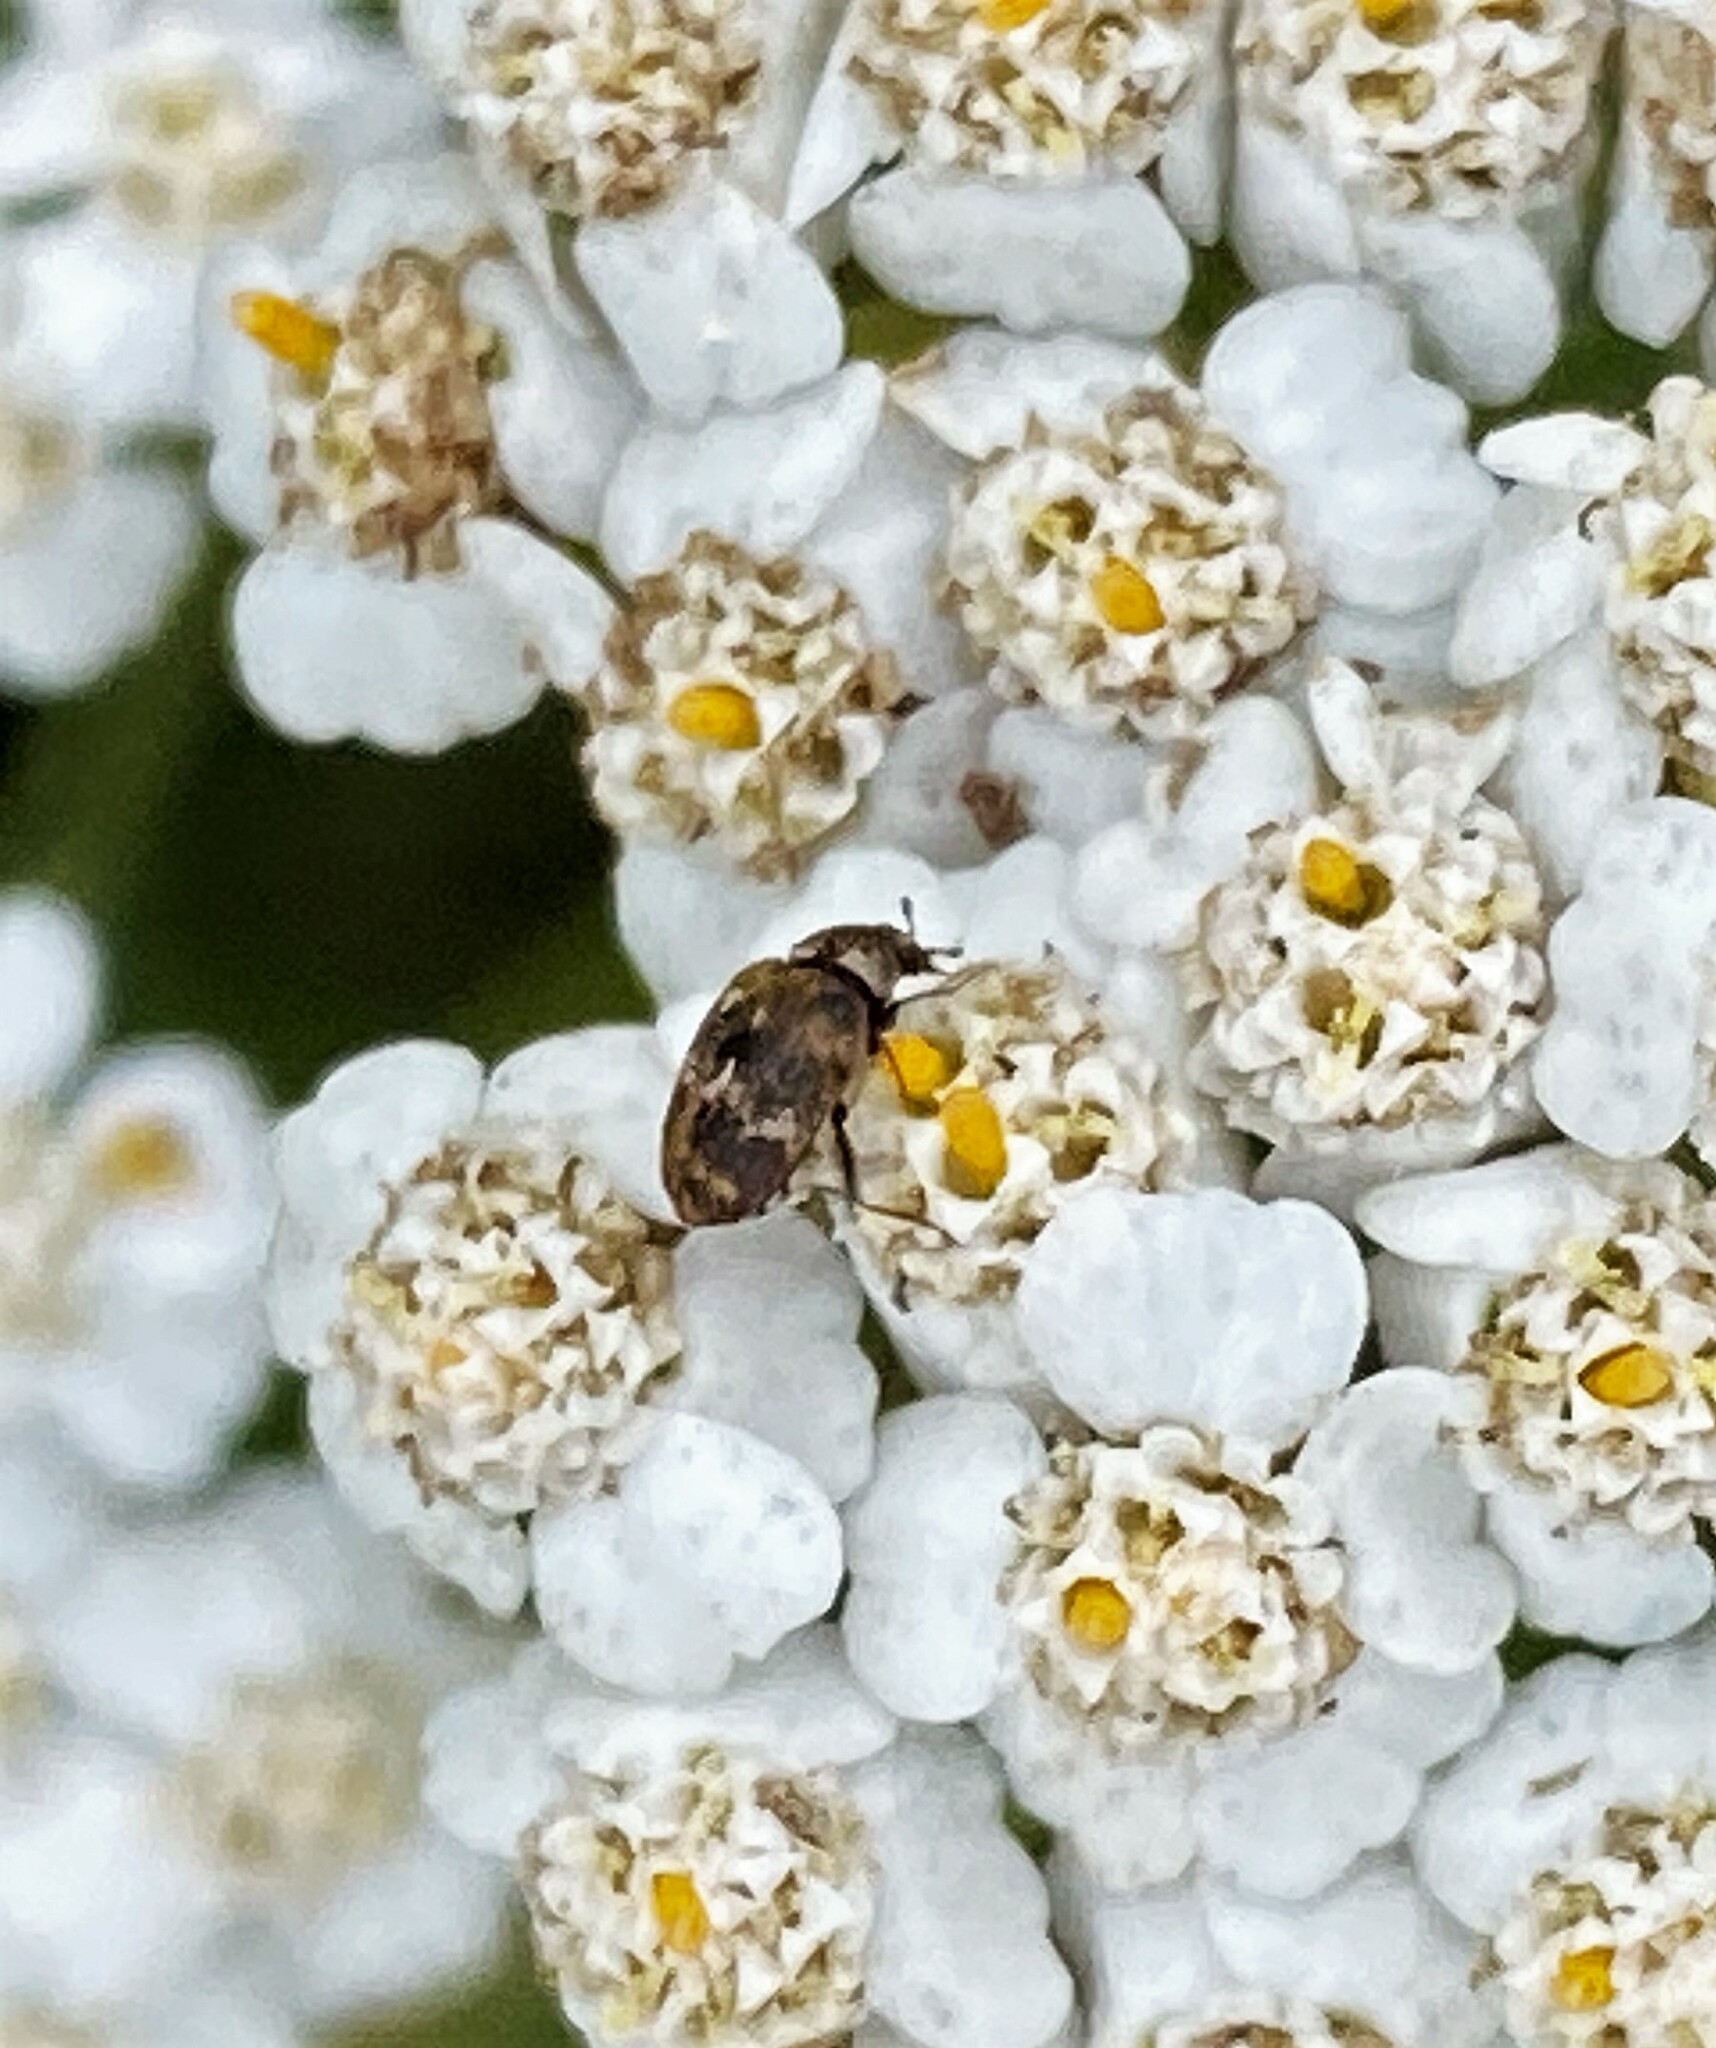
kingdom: Animalia
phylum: Arthropoda
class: Insecta
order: Coleoptera
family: Dermestidae
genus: Anthrenus
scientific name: Anthrenus museorum
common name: Museum beetle
